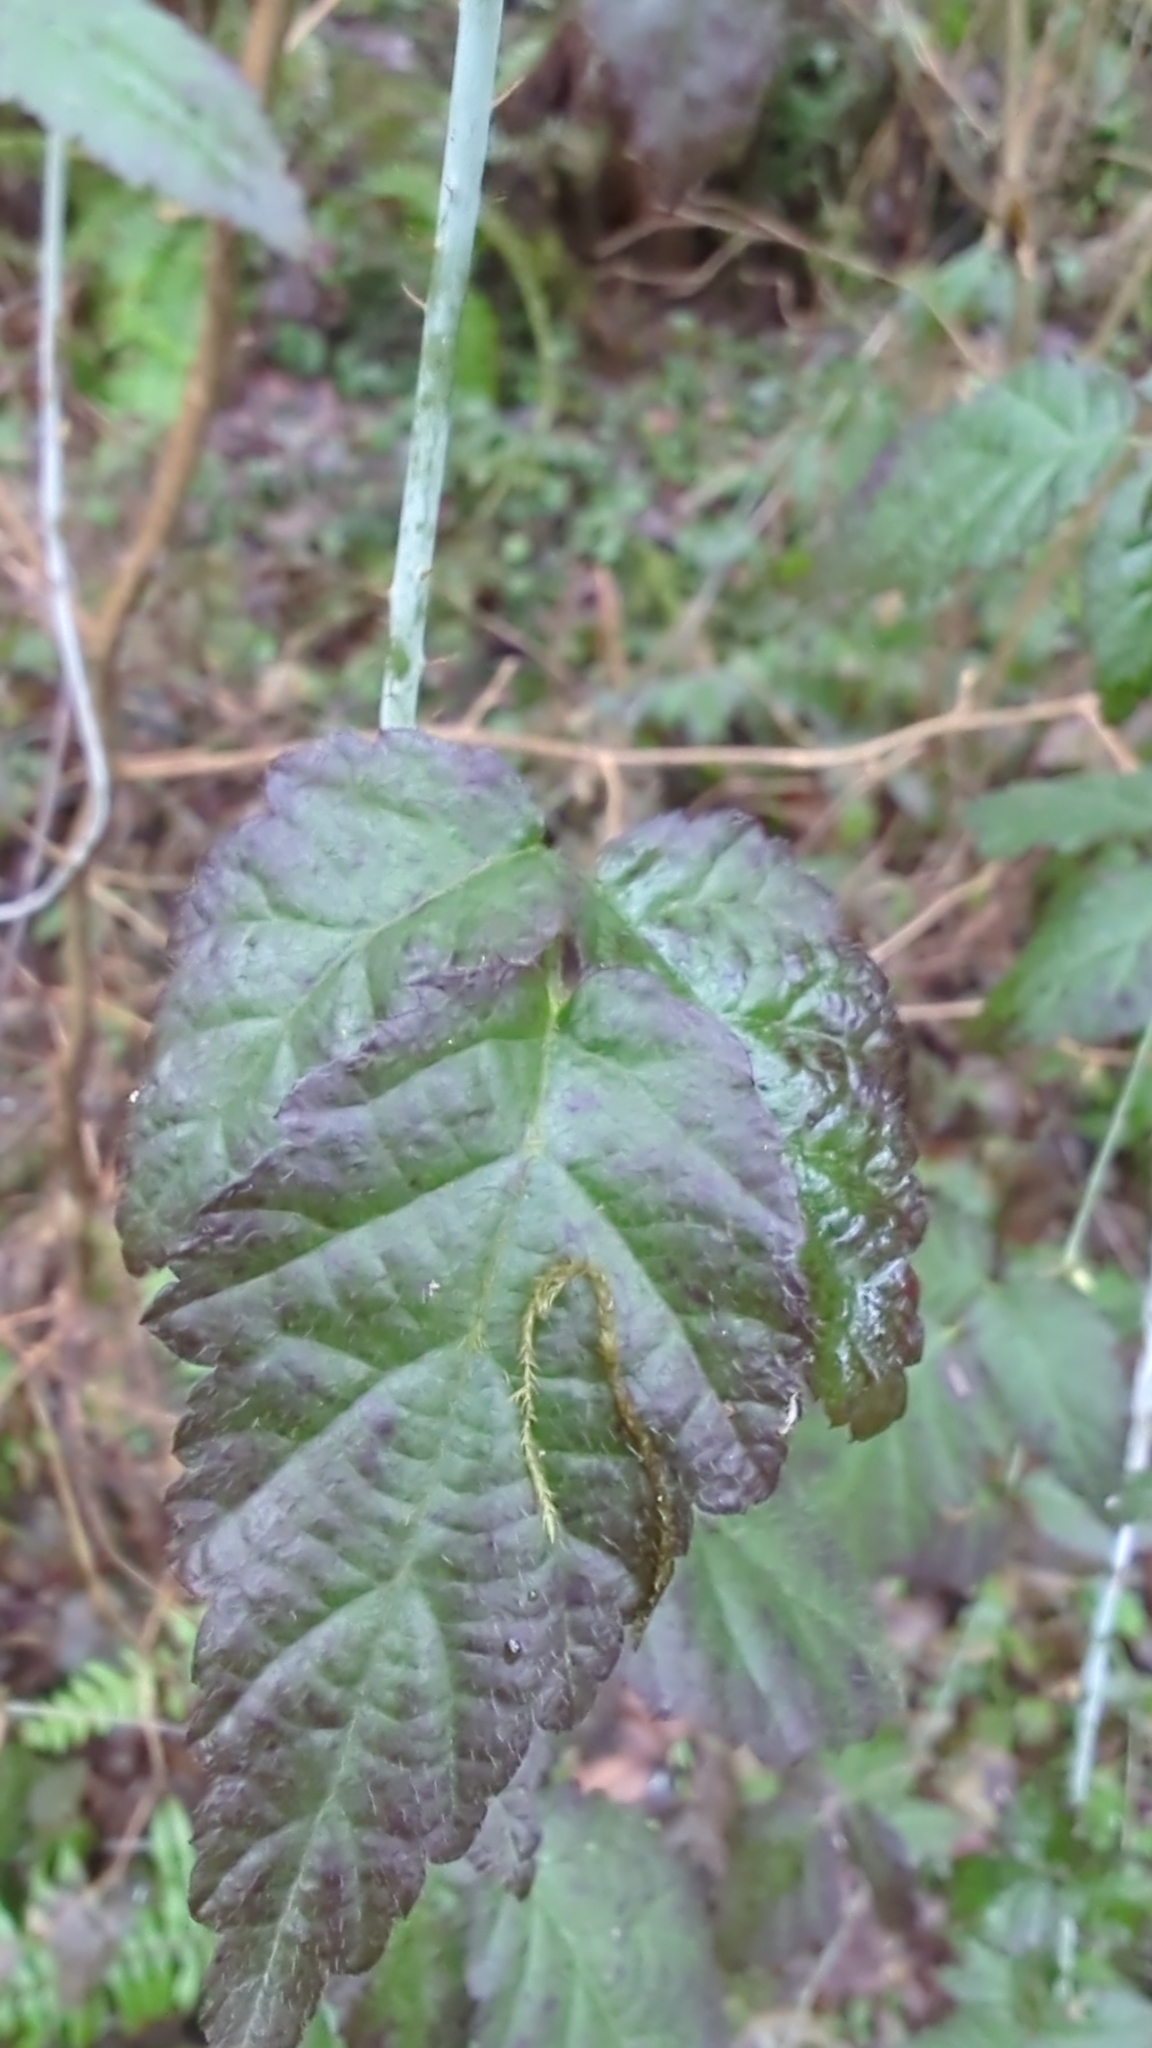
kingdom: Plantae
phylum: Tracheophyta
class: Magnoliopsida
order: Rosales
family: Rosaceae
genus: Rubus
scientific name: Rubus ursinus
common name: Pacific blackberry
